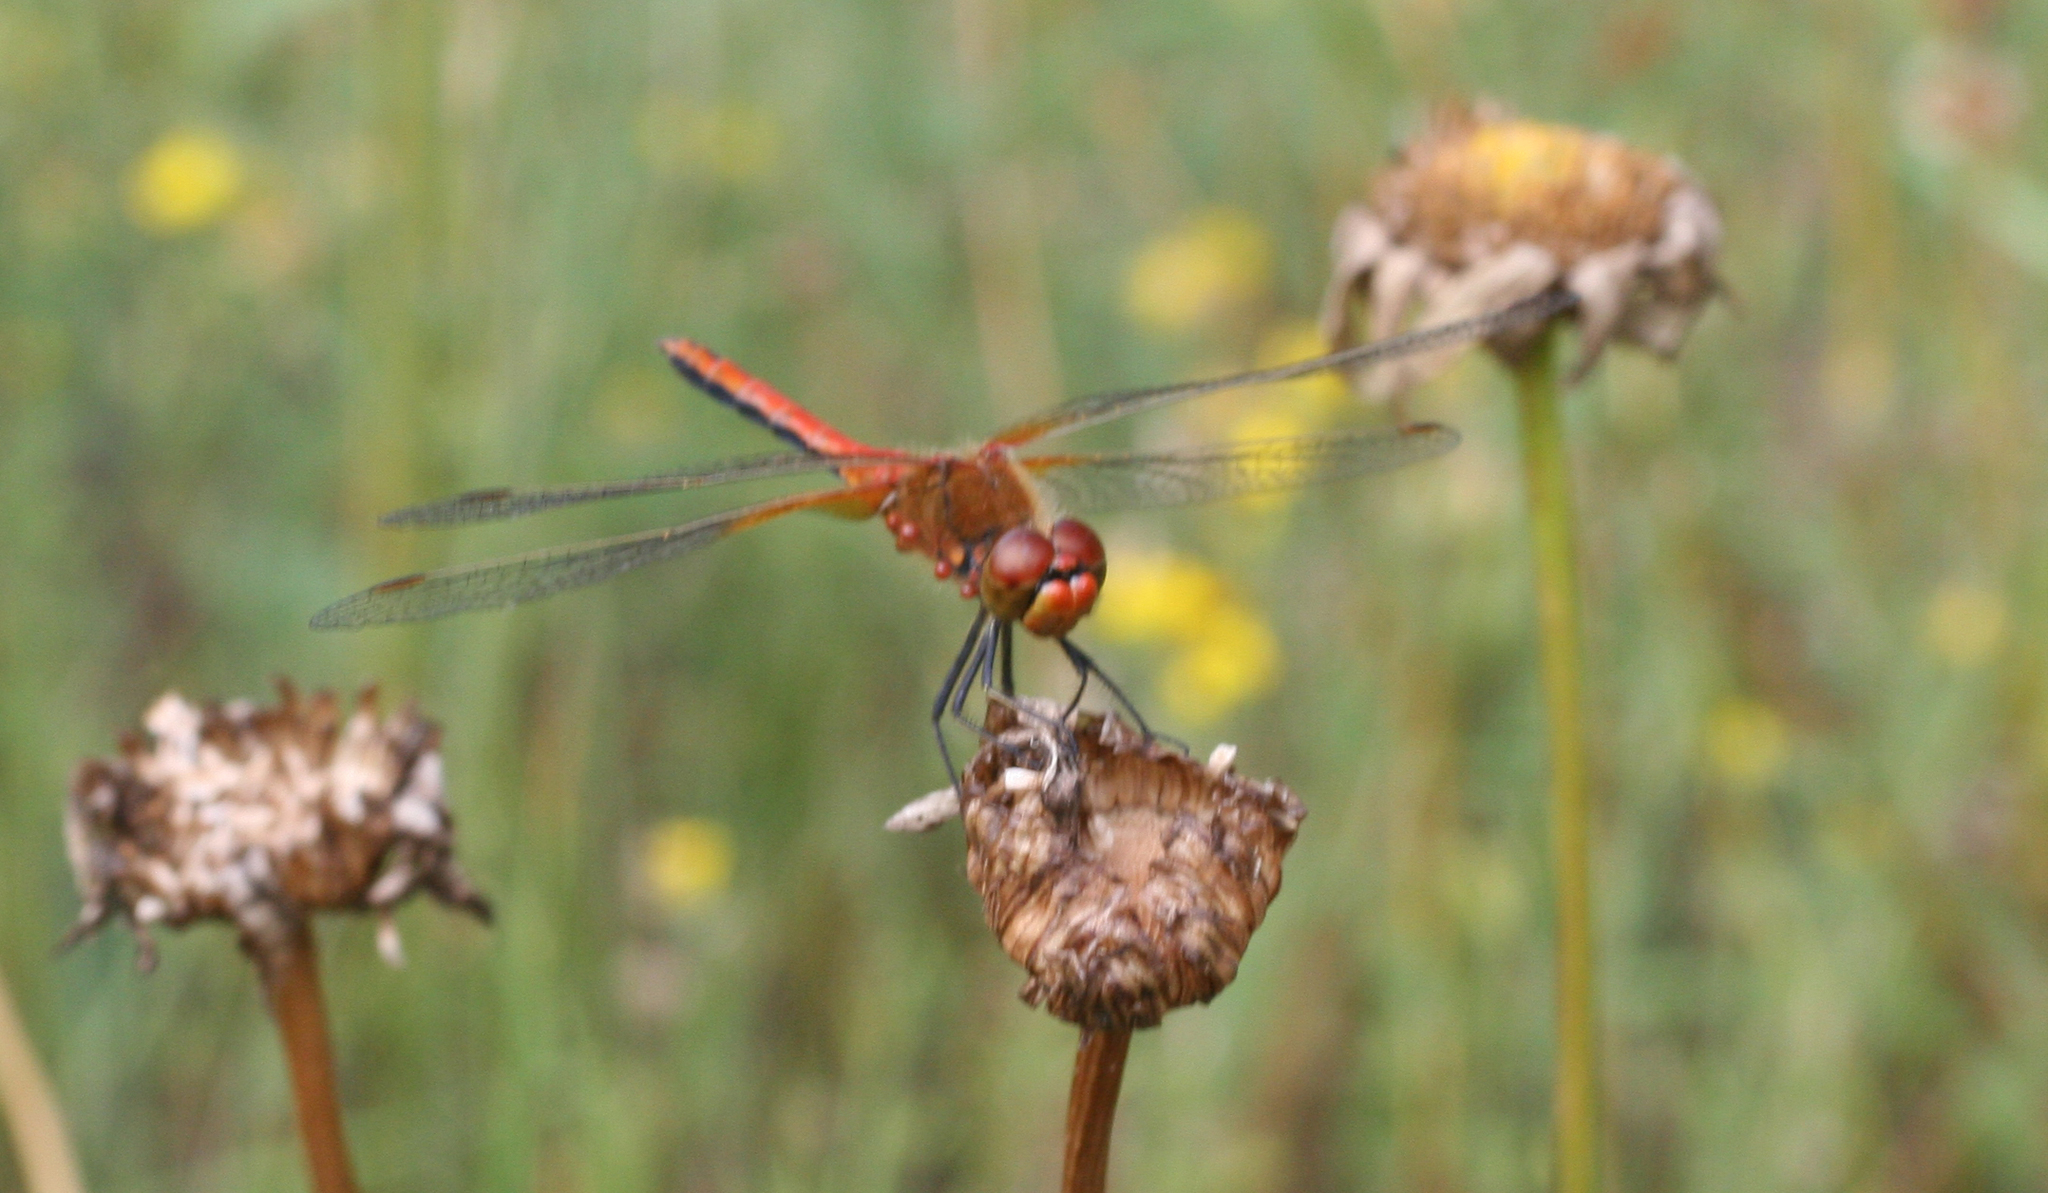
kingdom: Animalia
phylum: Arthropoda
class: Insecta
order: Odonata
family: Libellulidae
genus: Sympetrum
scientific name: Sympetrum flaveolum
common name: Yellow-winged darter
